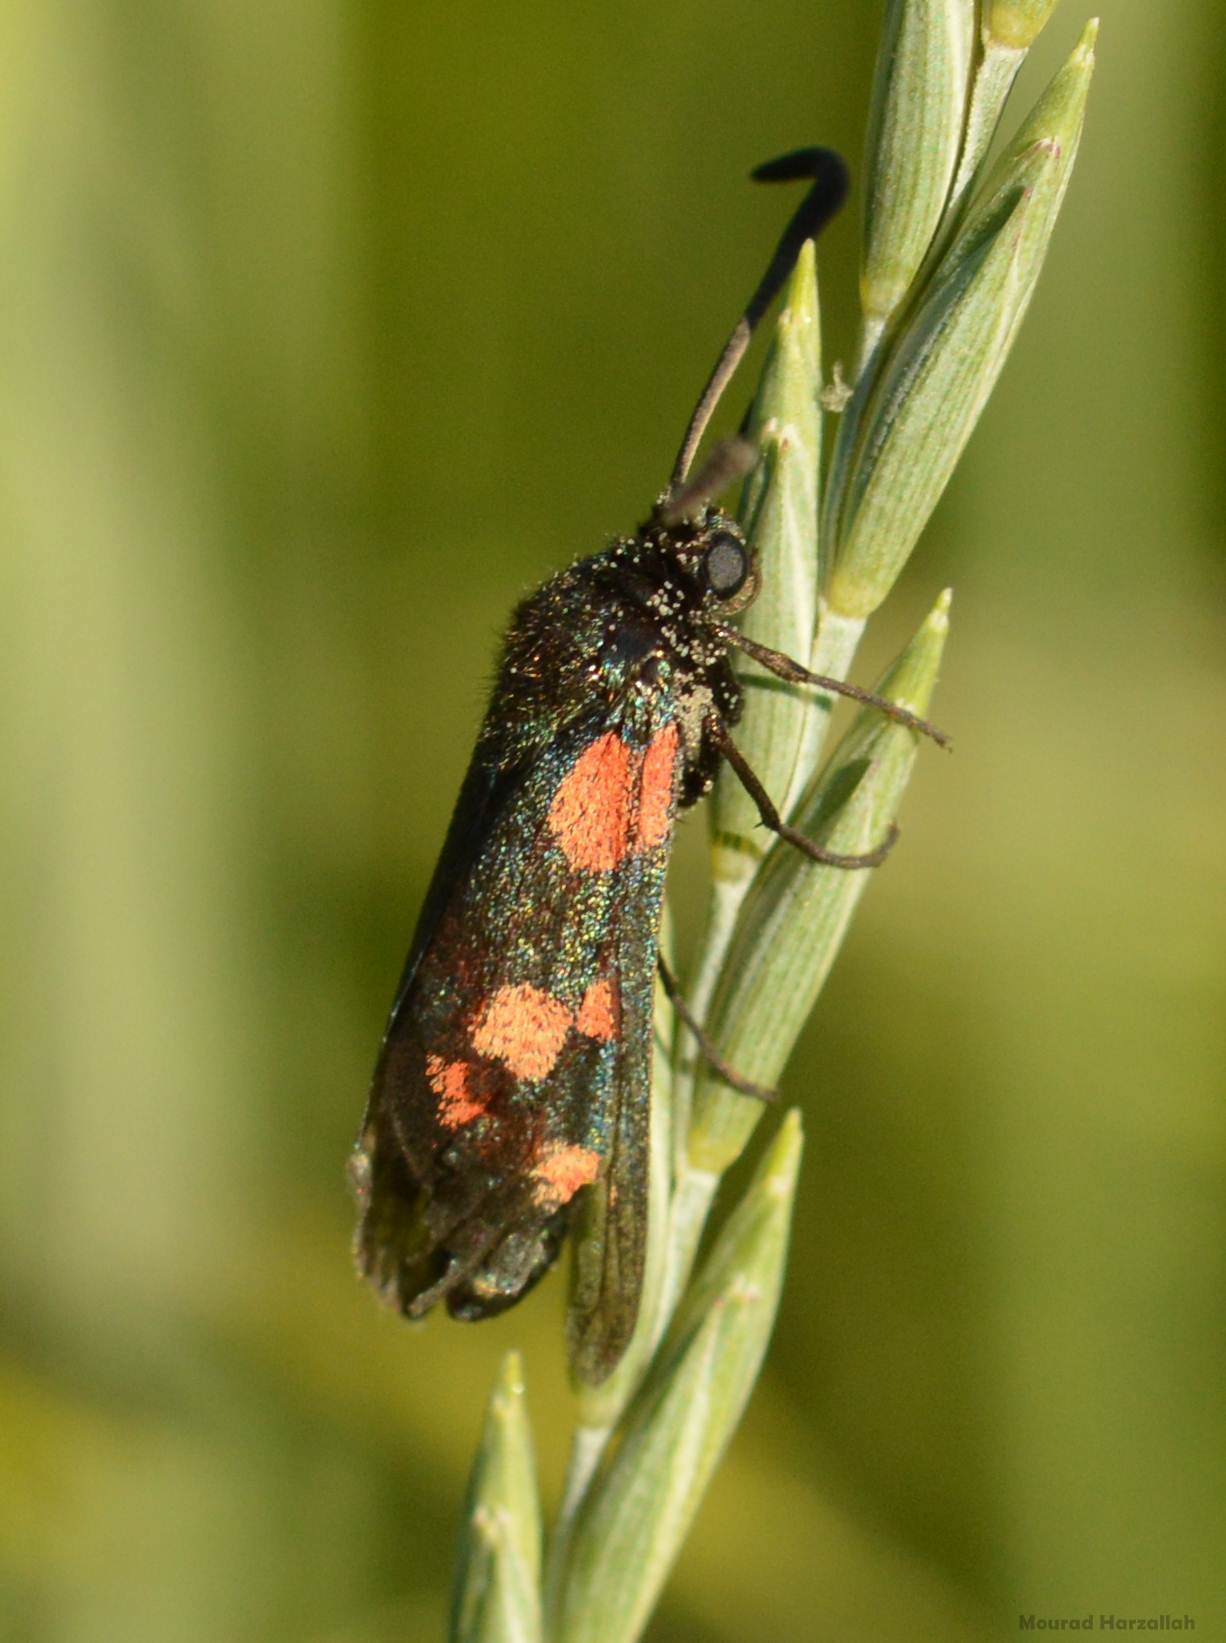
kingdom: Animalia
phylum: Arthropoda
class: Insecta
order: Lepidoptera
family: Zygaenidae
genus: Zygaena
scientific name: Zygaena trifolii
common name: Five-spot burnet
